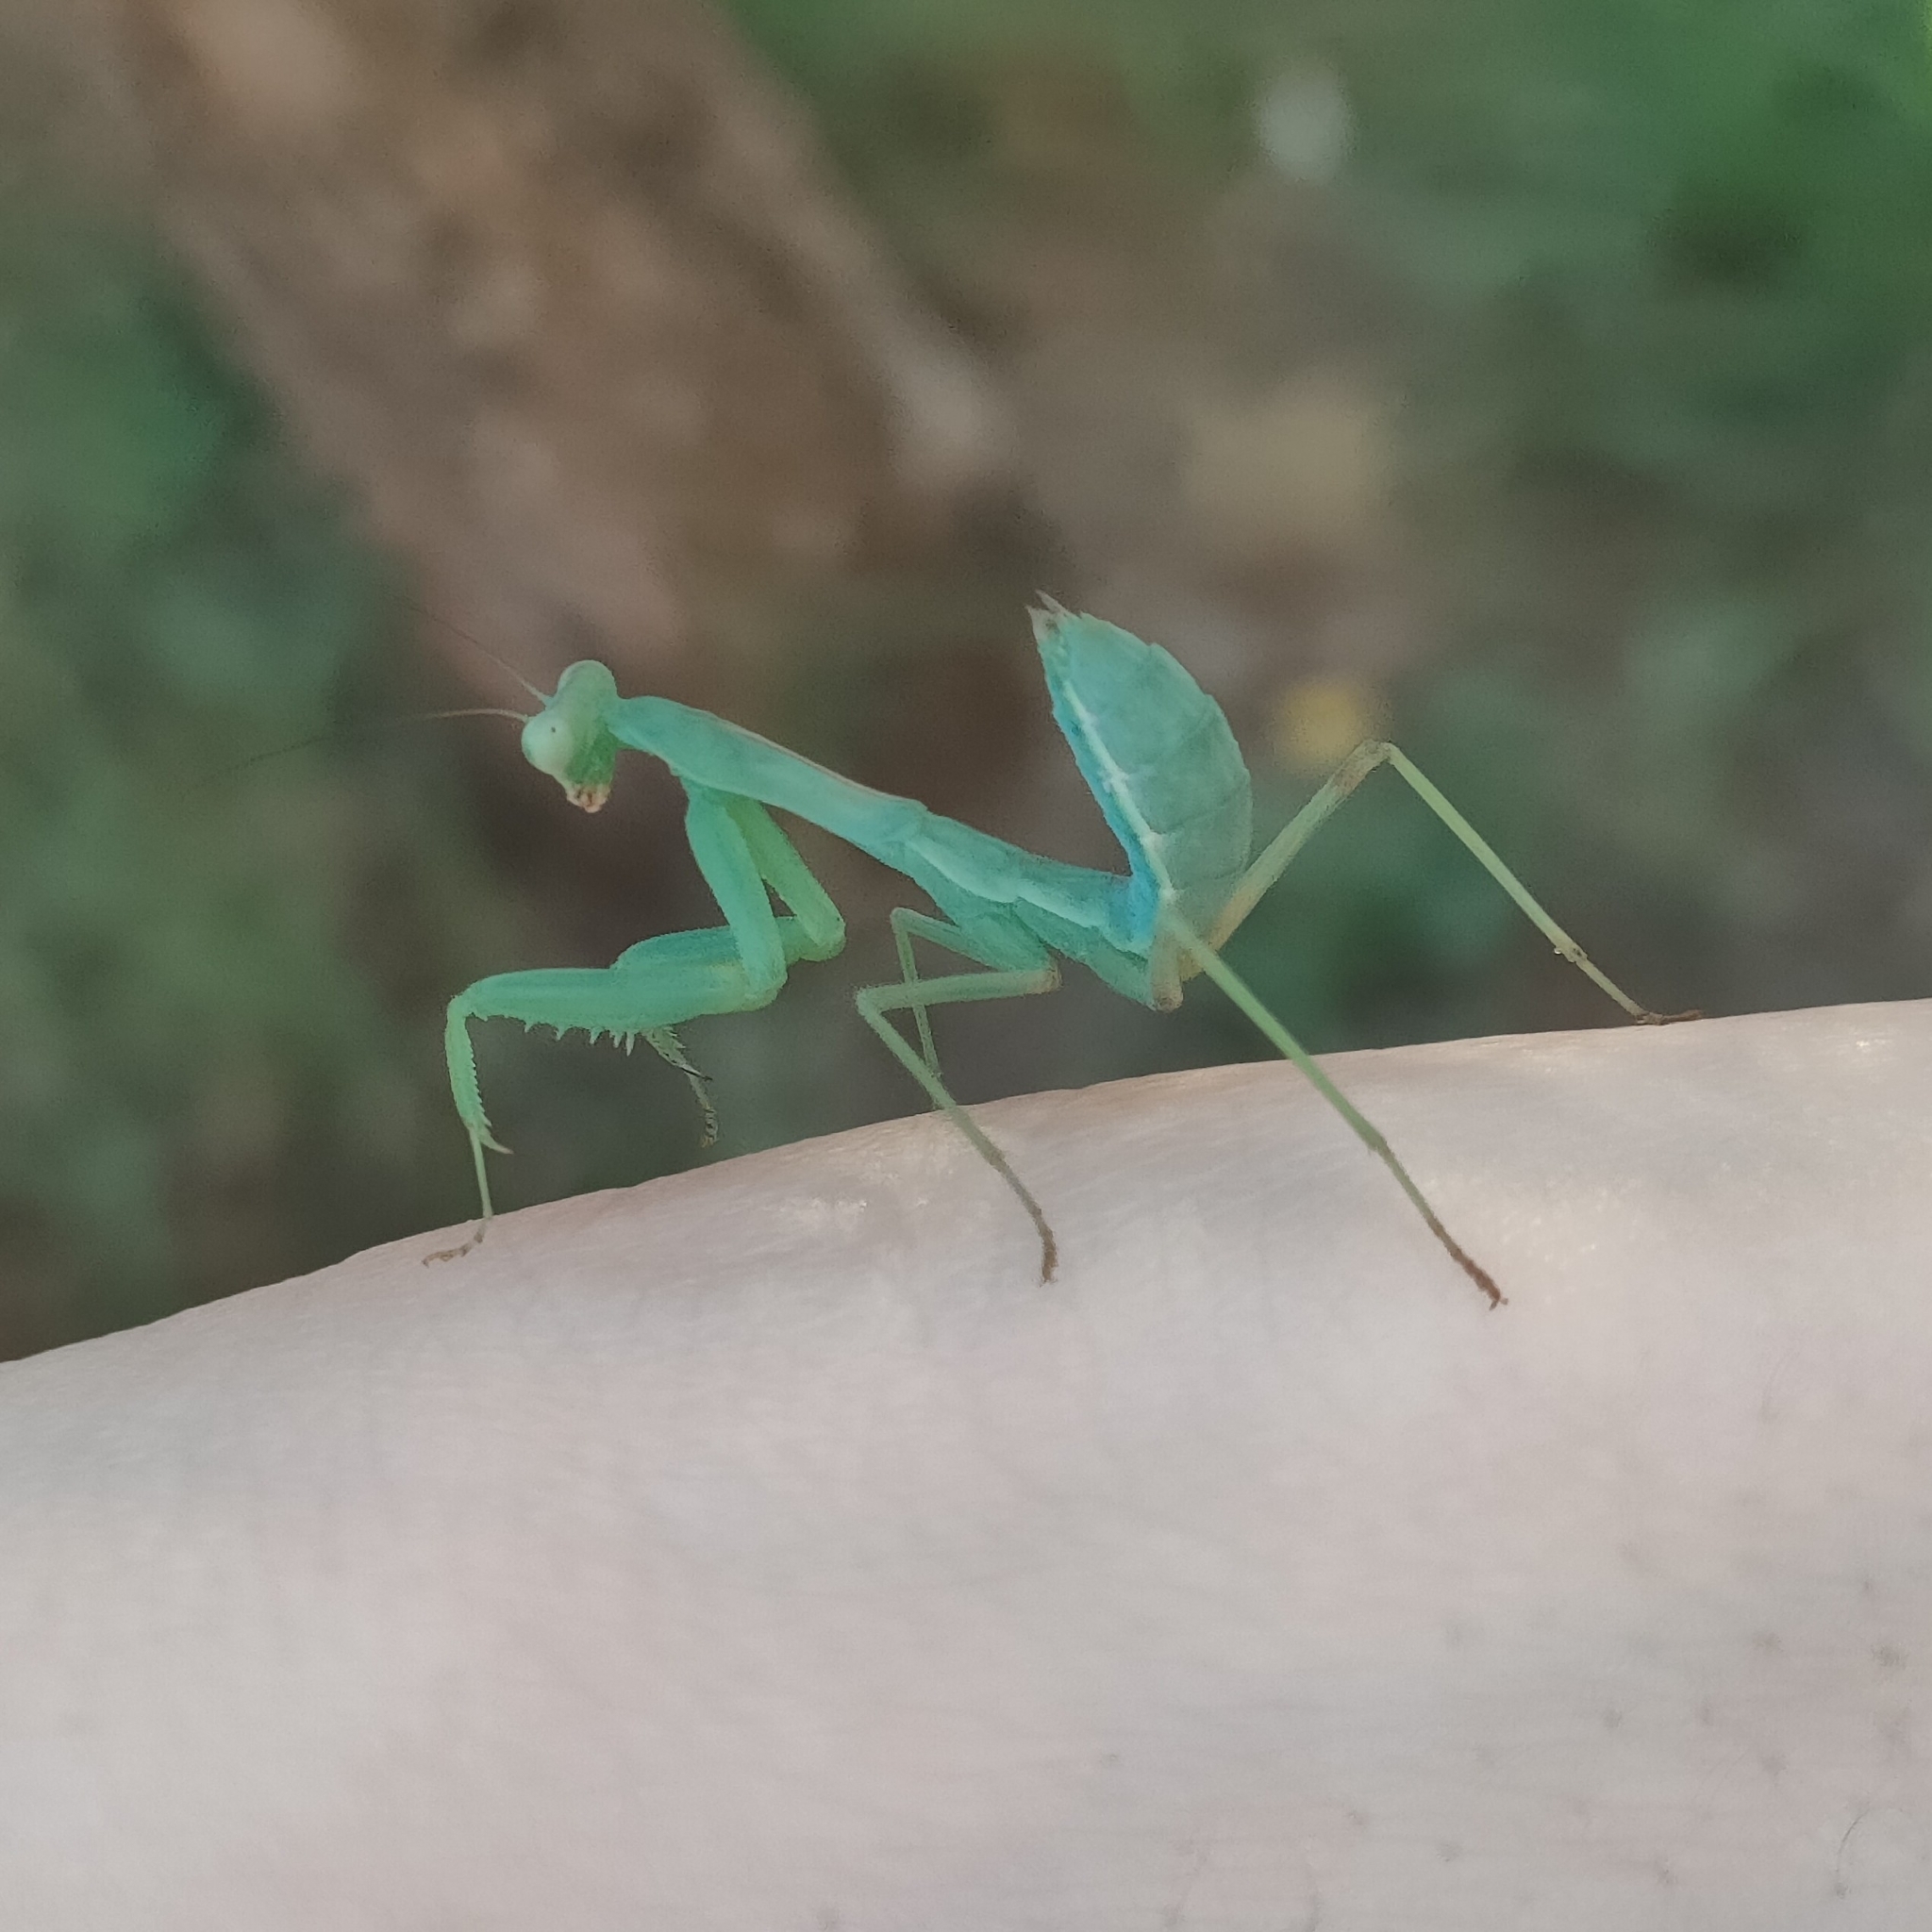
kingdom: Animalia
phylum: Arthropoda
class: Insecta
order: Mantodea
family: Mantidae
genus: Hierodula
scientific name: Hierodula transcaucasica
